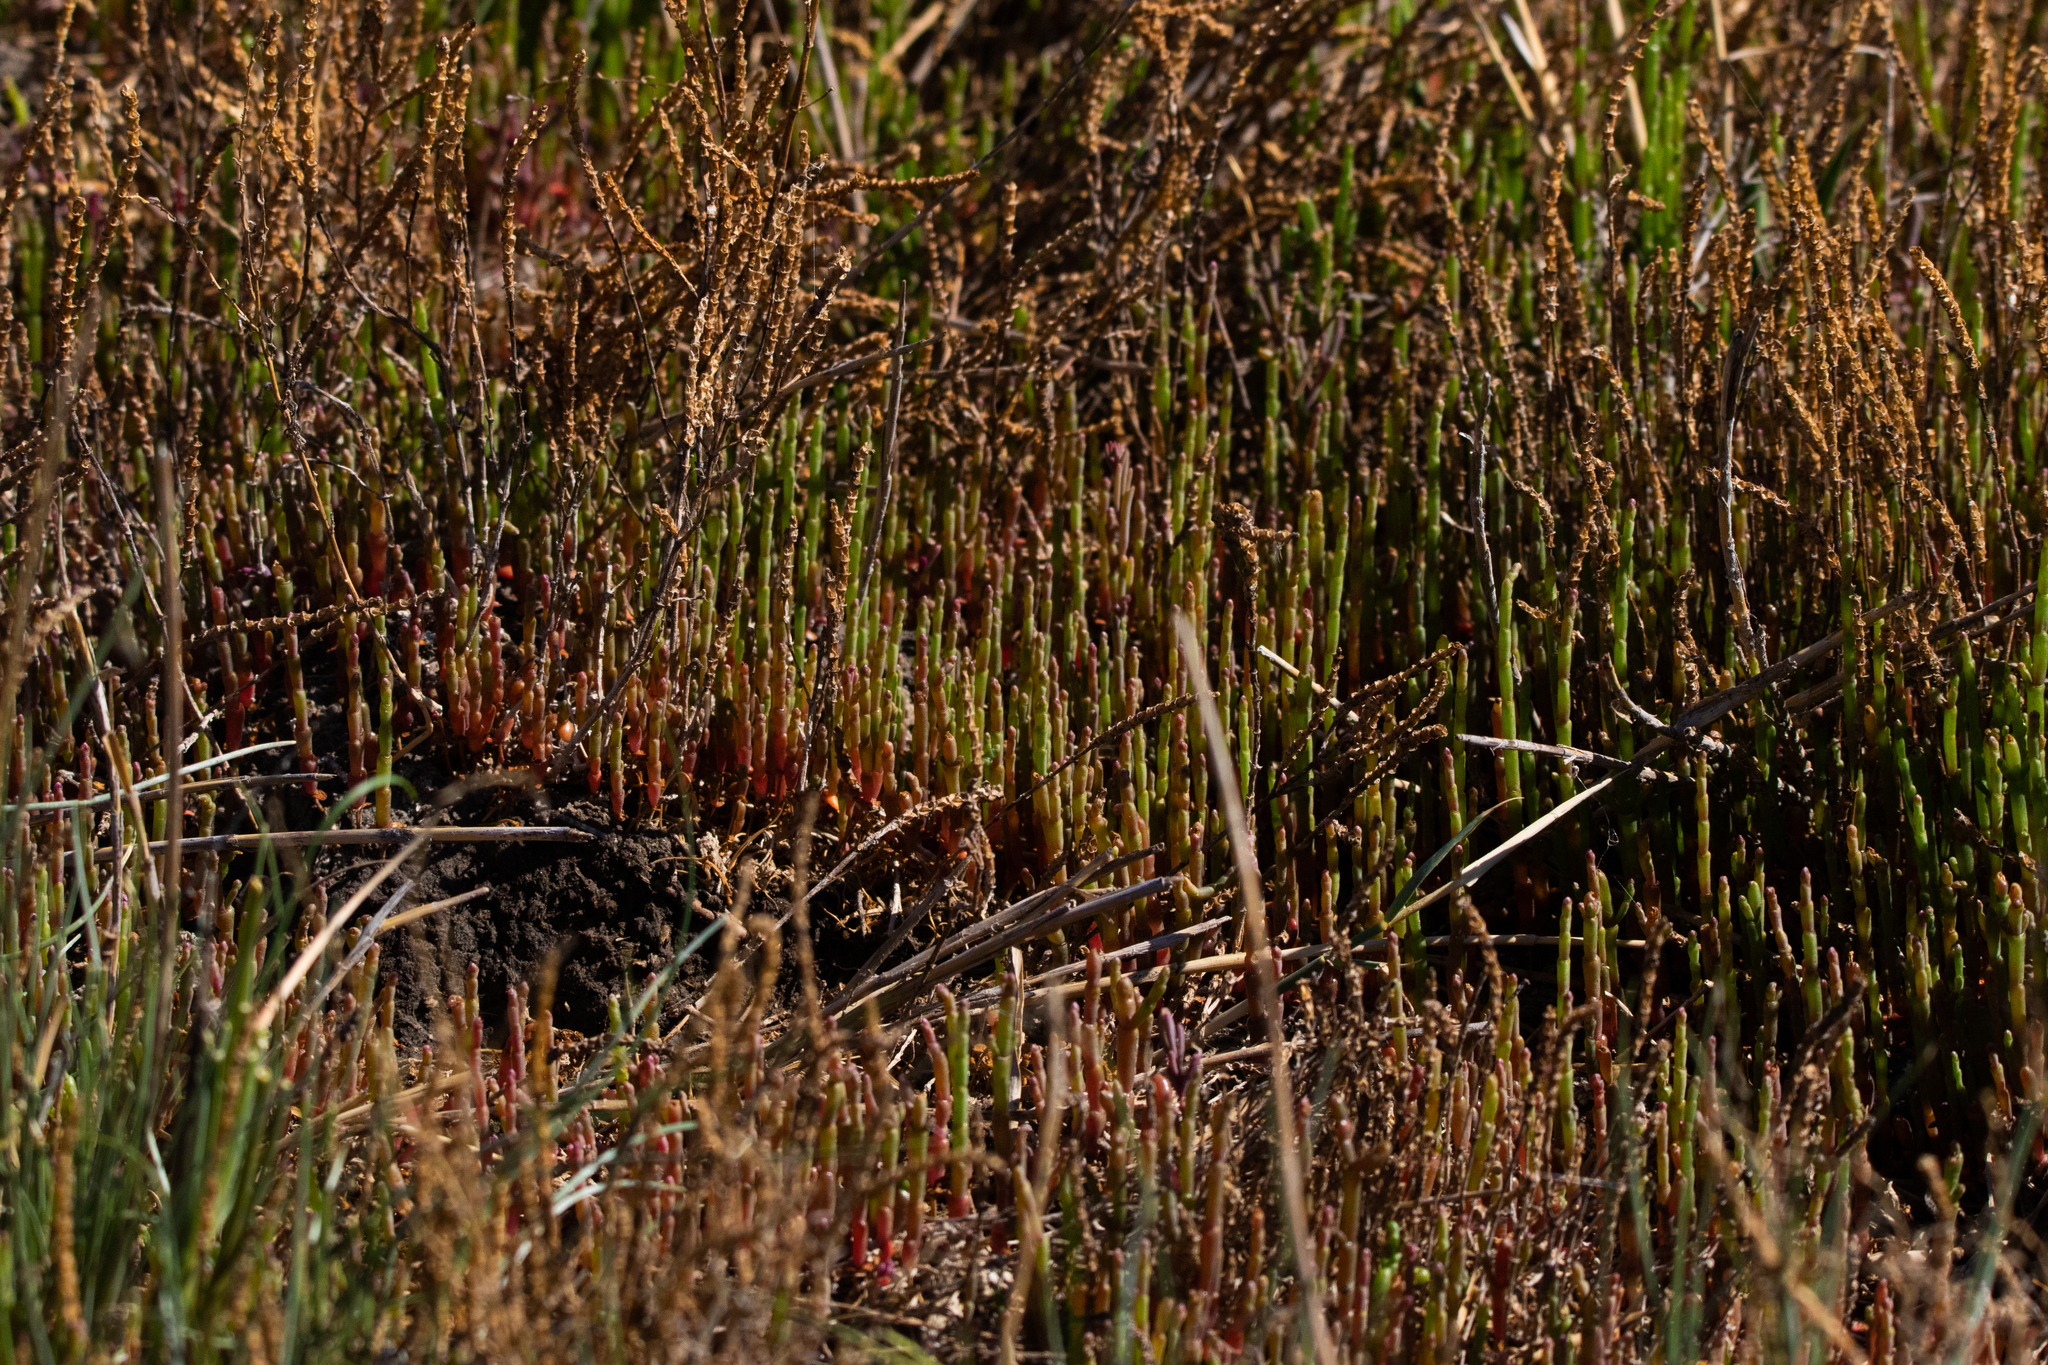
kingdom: Plantae
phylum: Tracheophyta
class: Magnoliopsida
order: Caryophyllales
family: Amaranthaceae
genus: Salicornia
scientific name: Salicornia perennans
